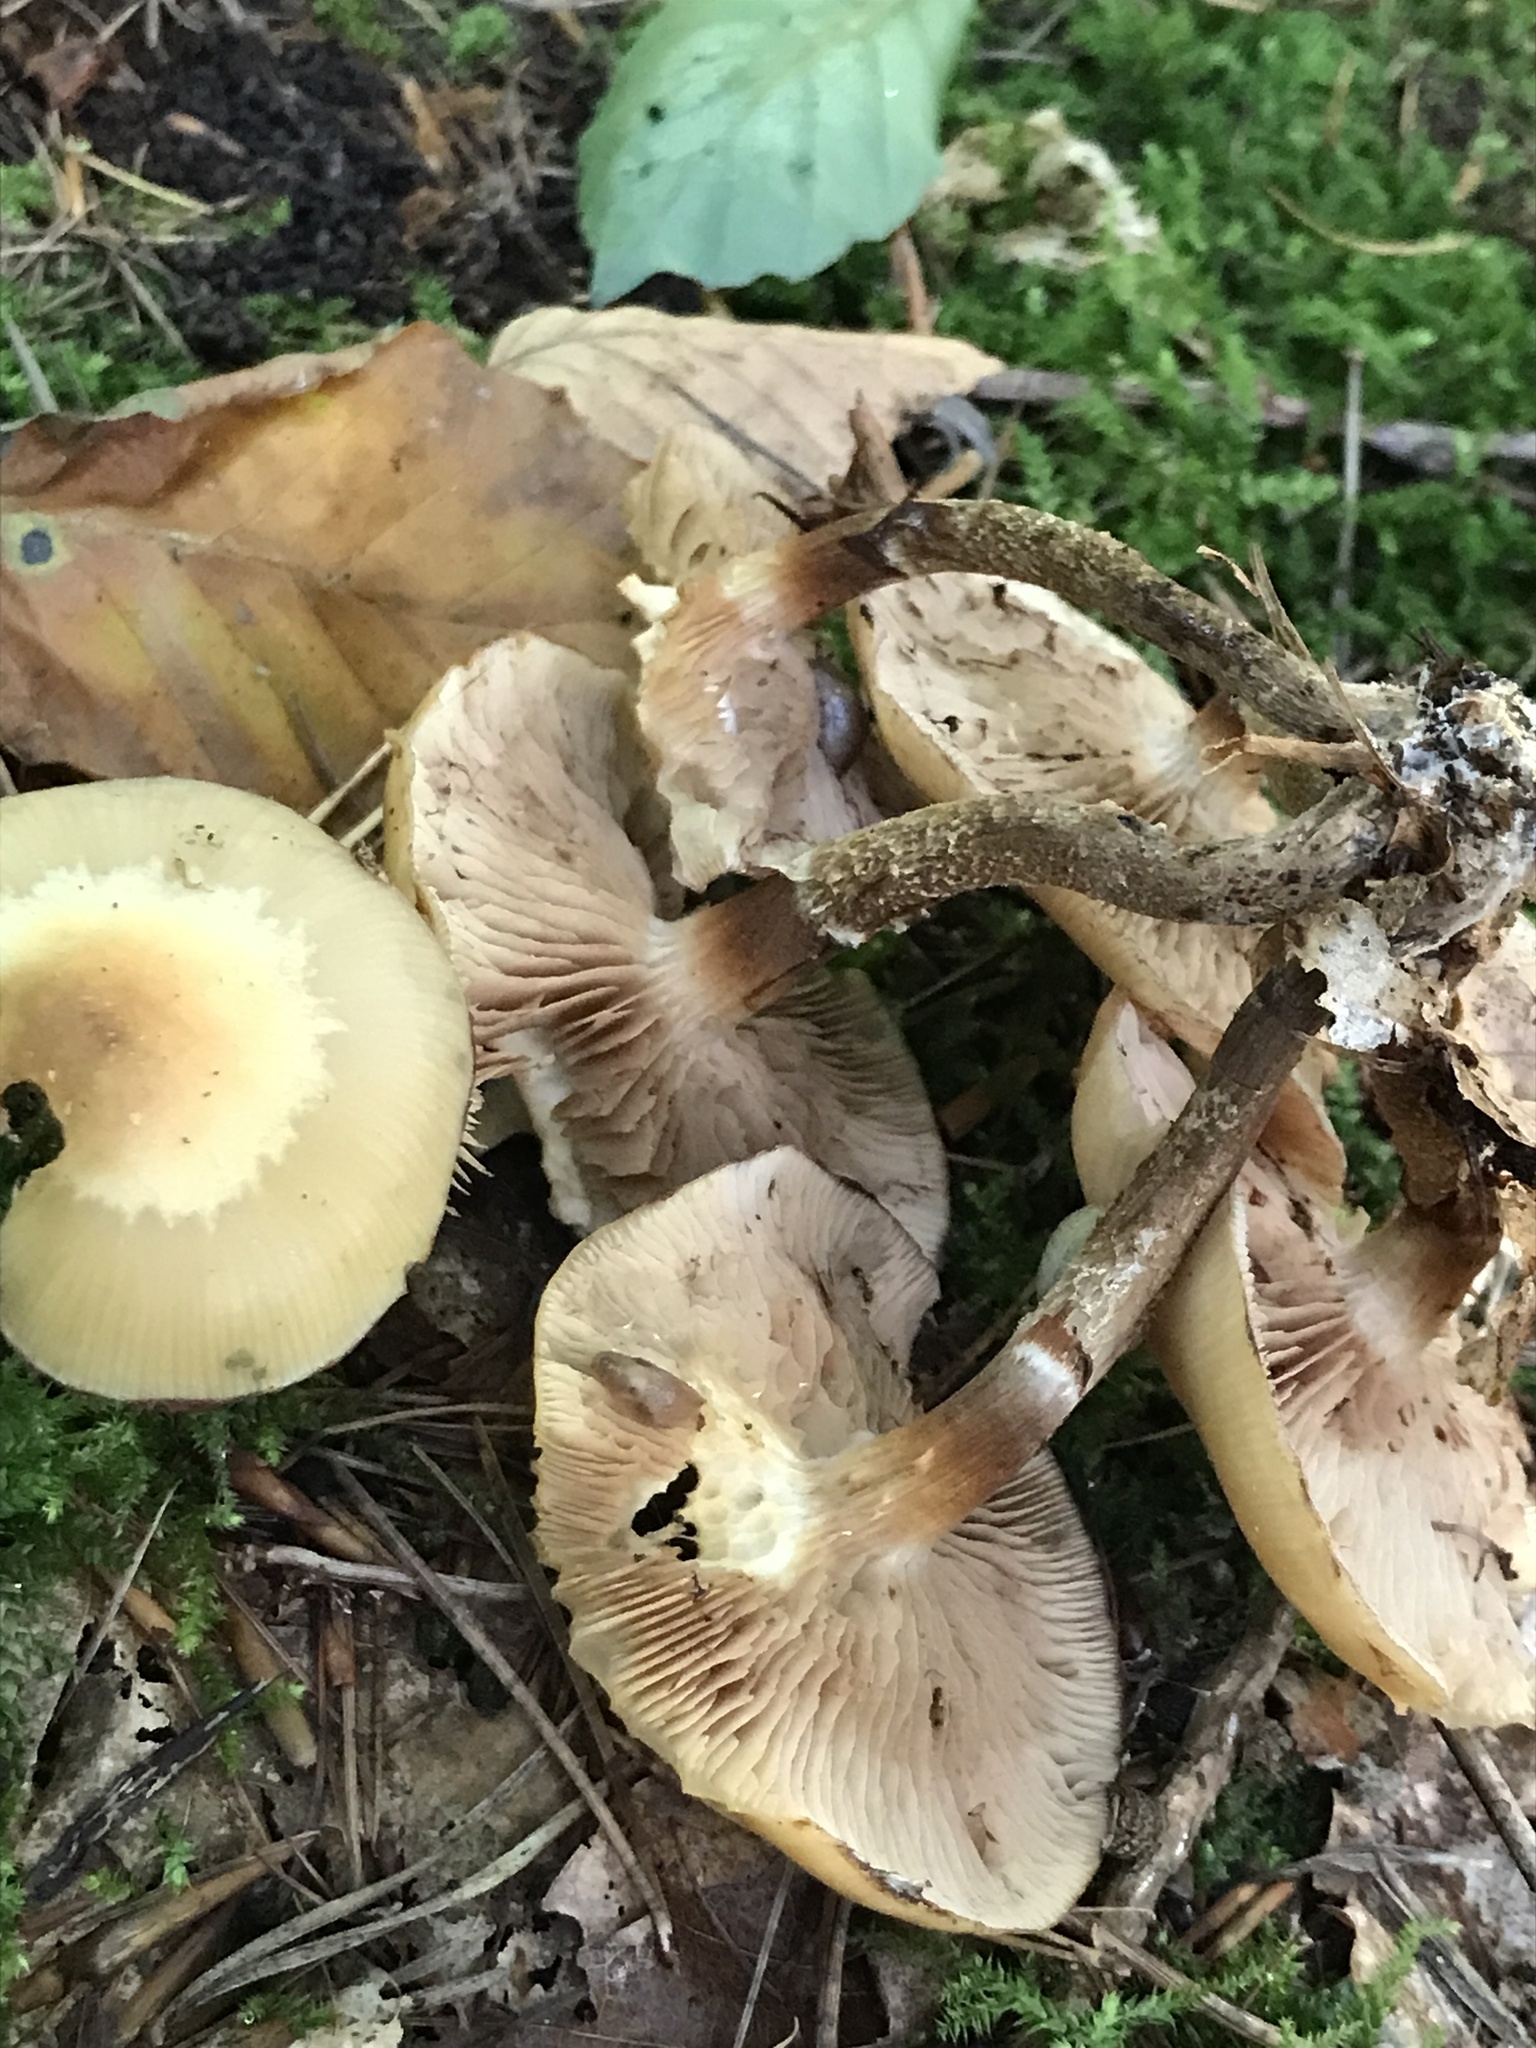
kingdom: Fungi
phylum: Basidiomycota
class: Agaricomycetes
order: Agaricales
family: Strophariaceae
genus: Kuehneromyces
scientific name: Kuehneromyces mutabilis
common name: Sheathed woodtuft
